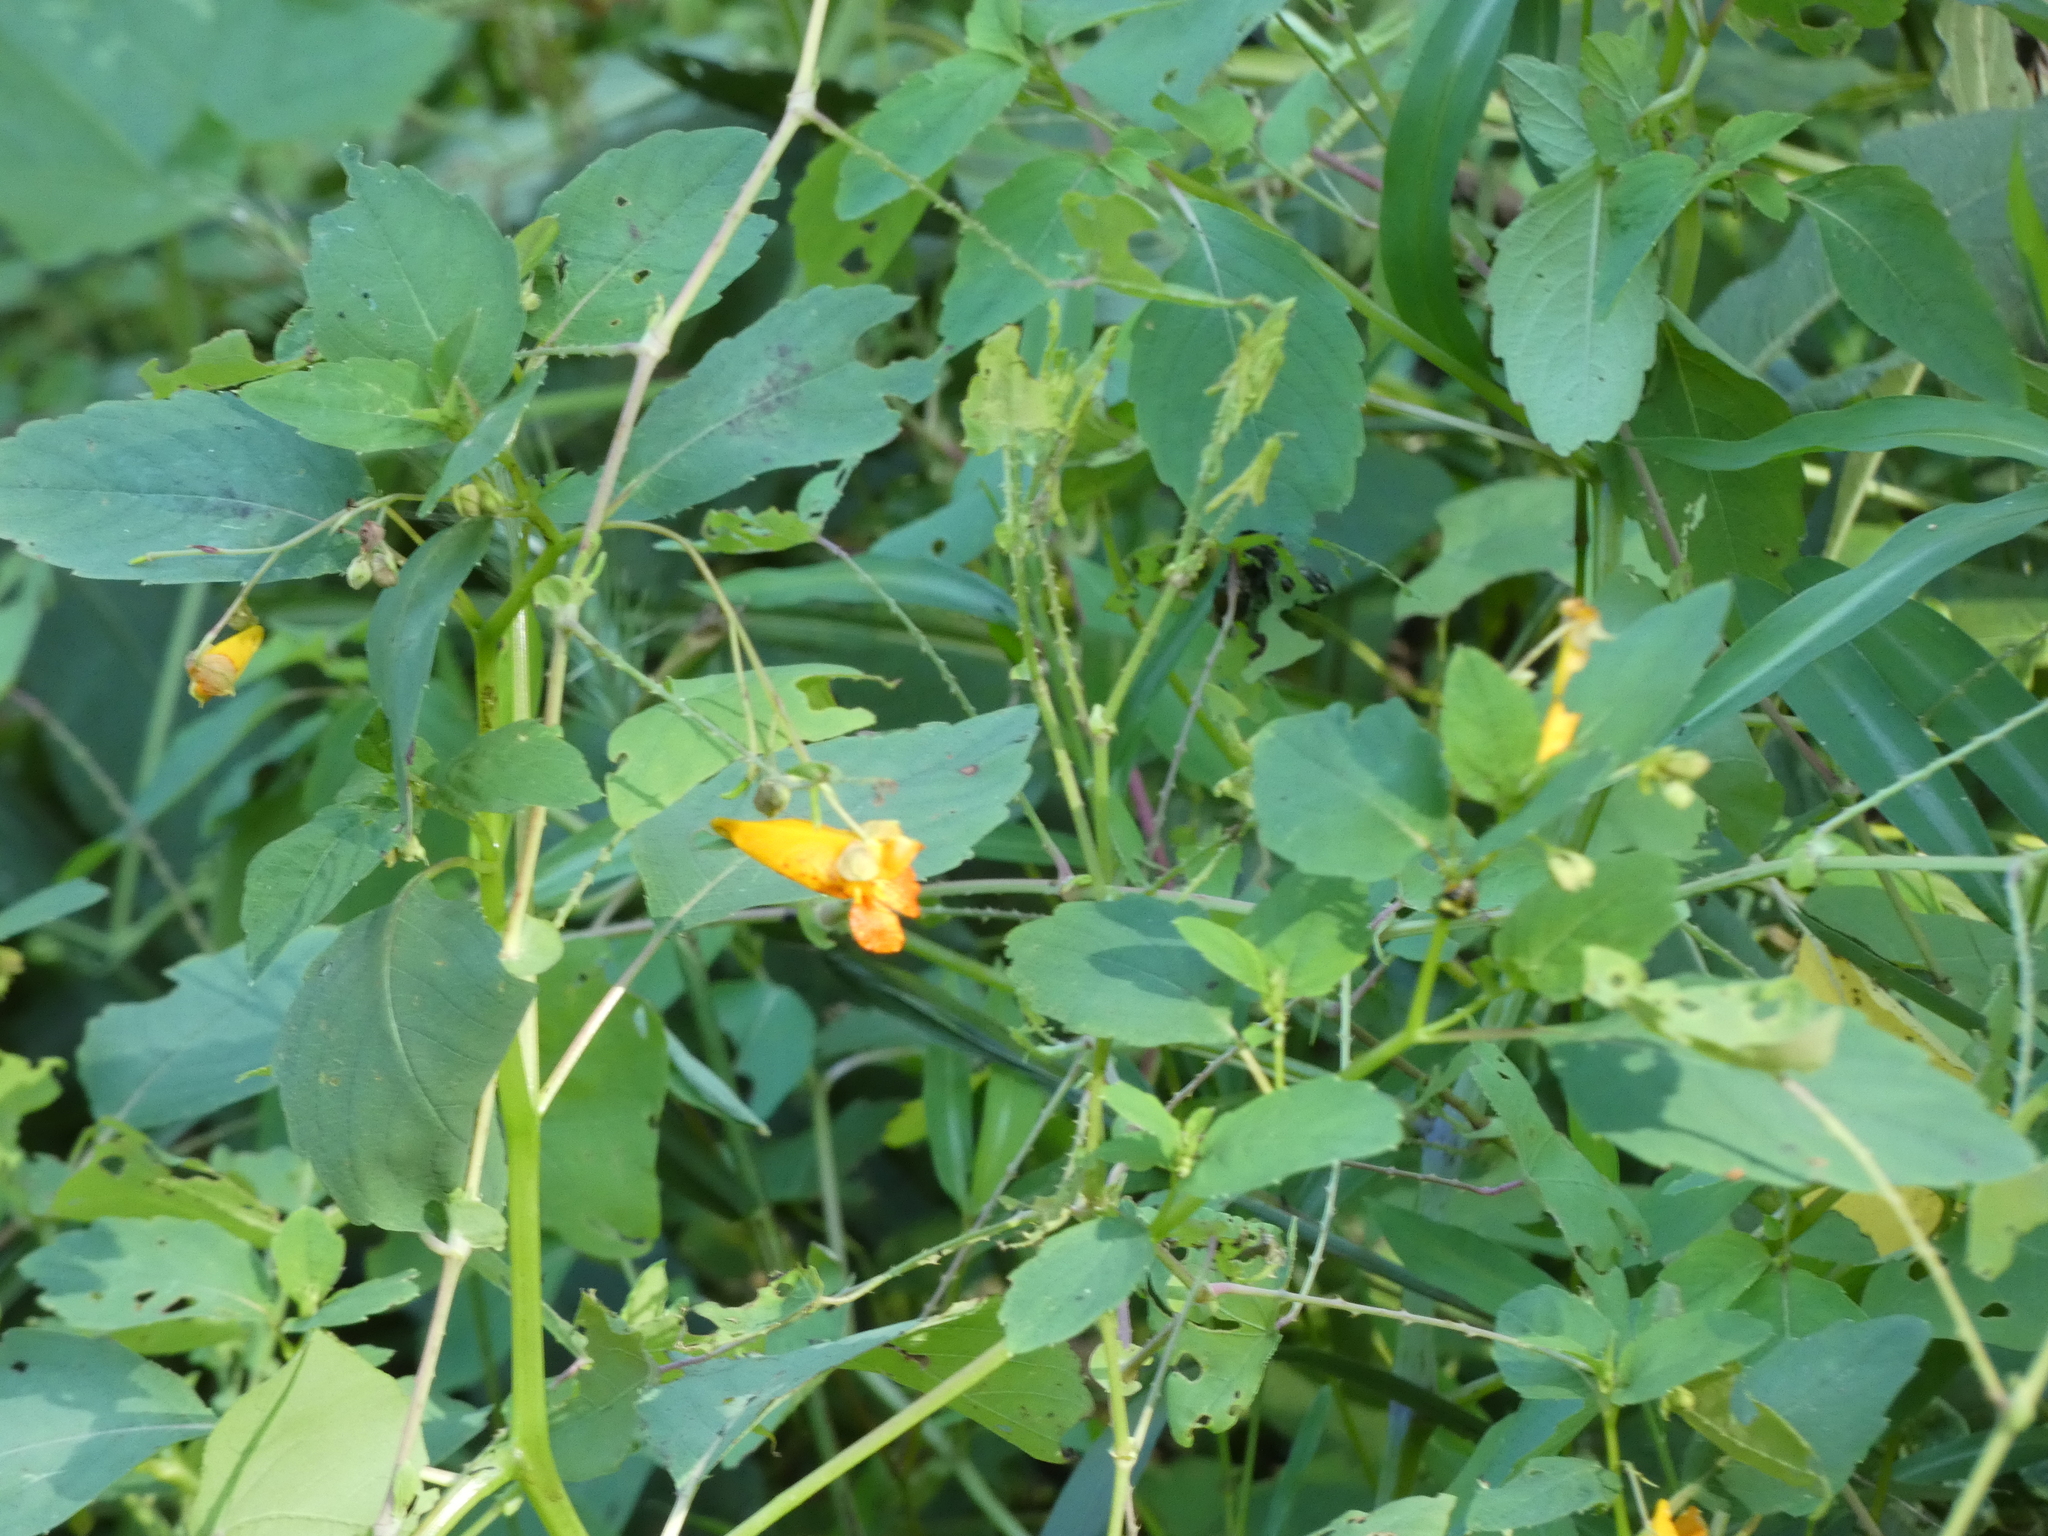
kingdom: Plantae
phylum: Tracheophyta
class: Magnoliopsida
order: Ericales
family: Balsaminaceae
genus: Impatiens
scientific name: Impatiens capensis
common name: Orange balsam
